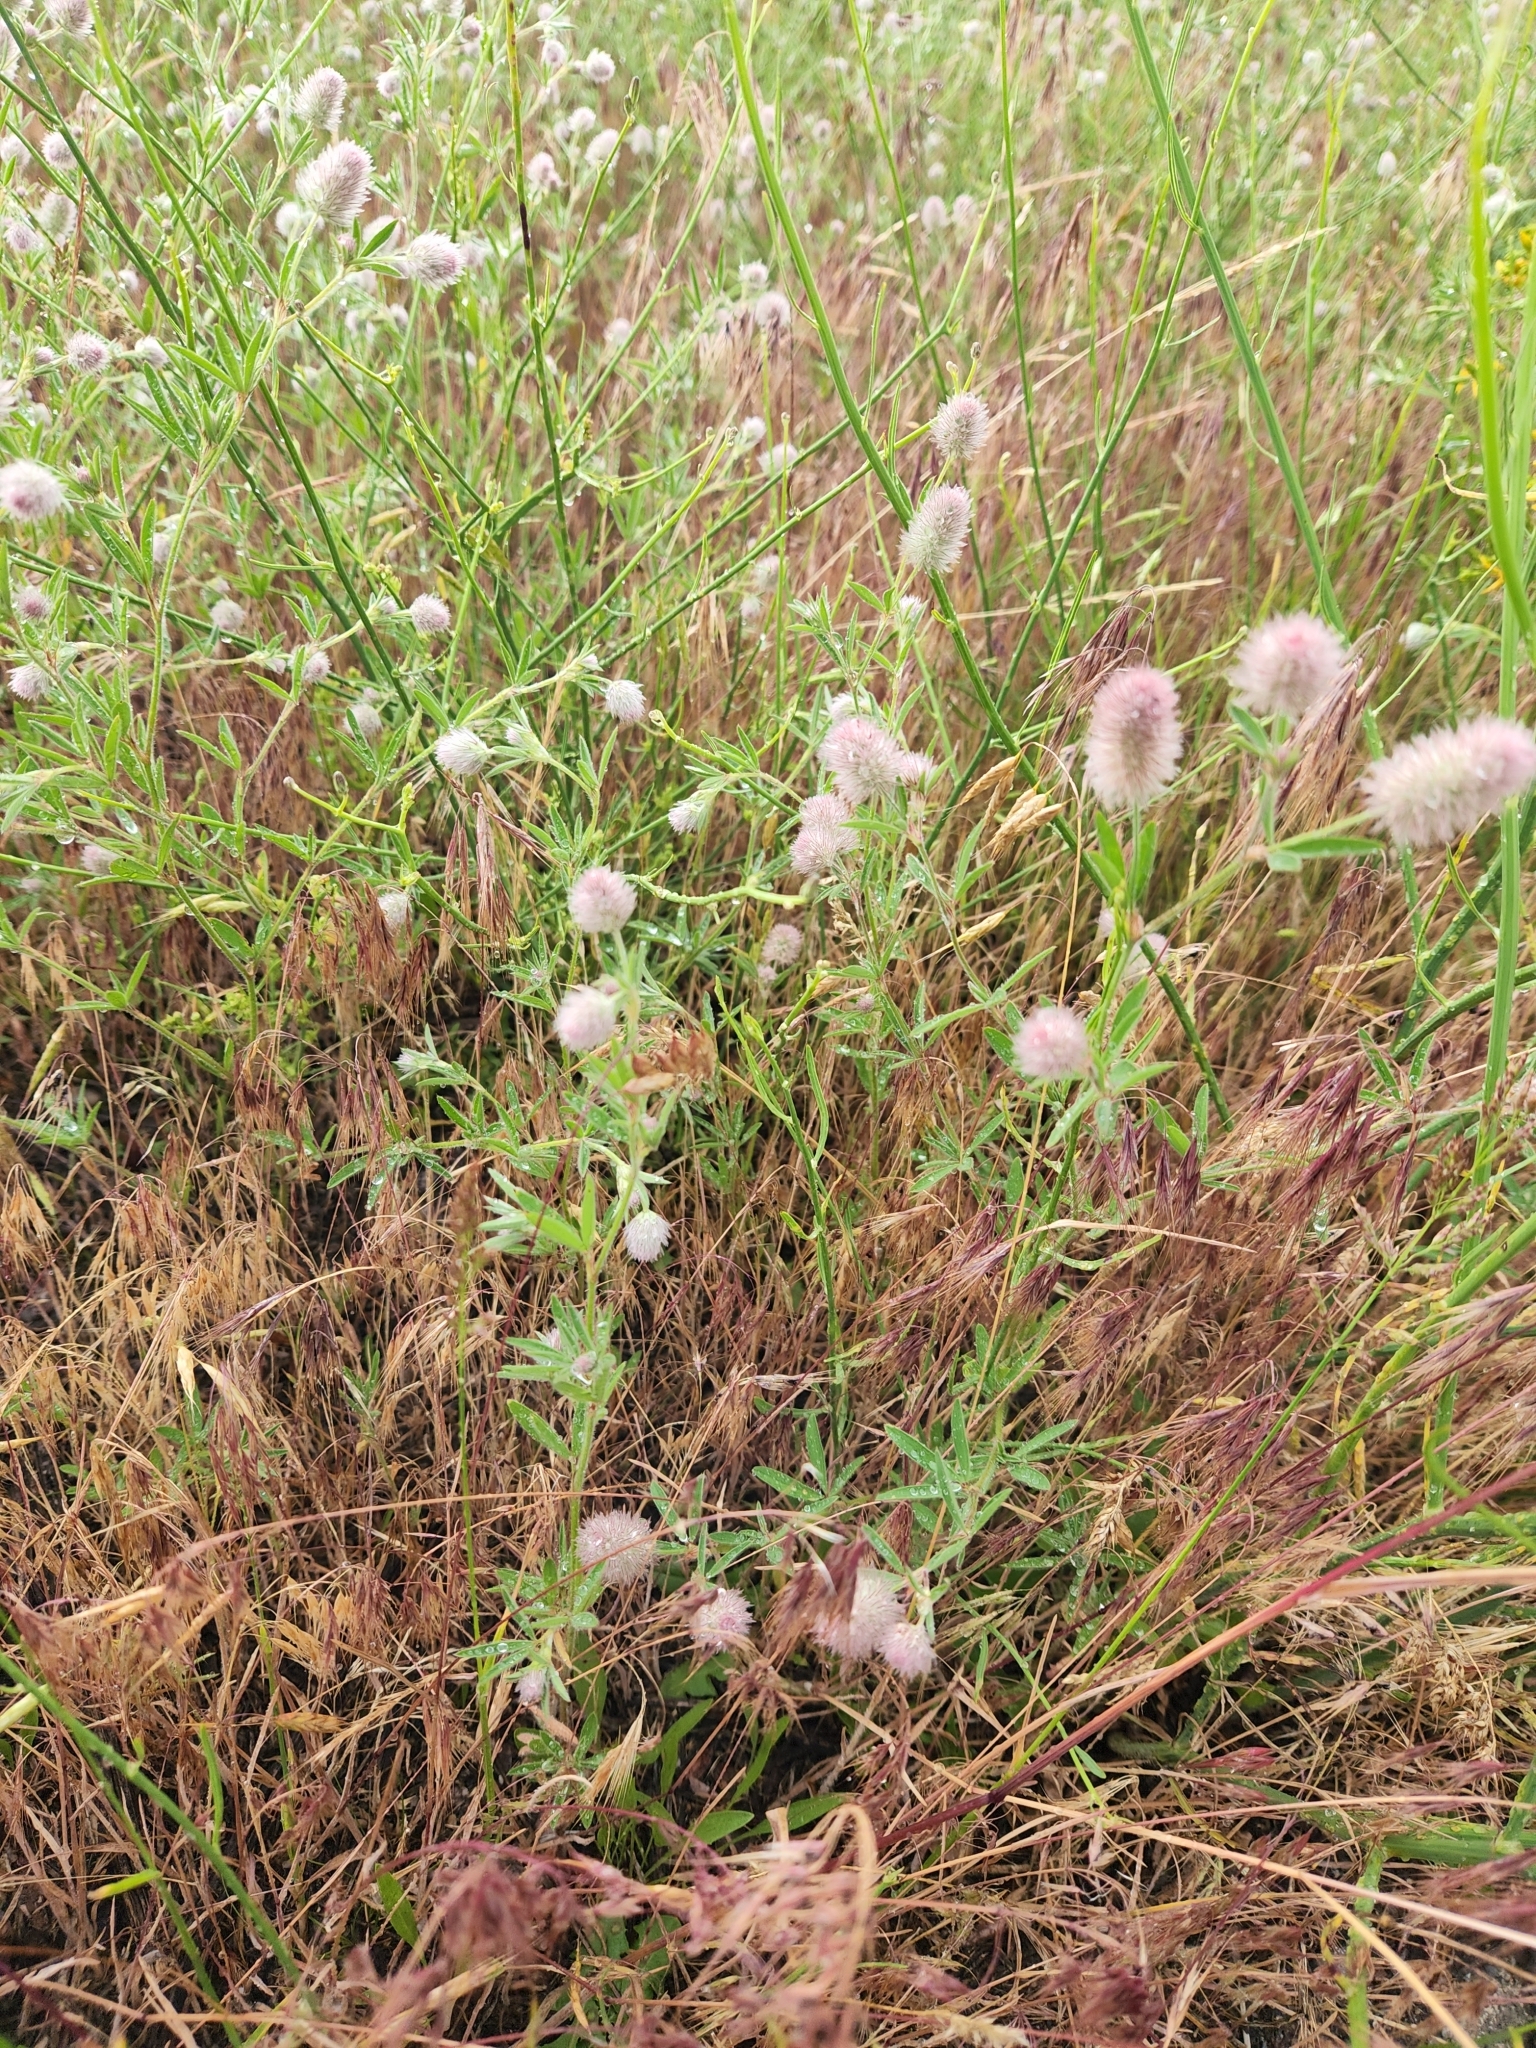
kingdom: Plantae
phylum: Tracheophyta
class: Magnoliopsida
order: Fabales
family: Fabaceae
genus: Trifolium
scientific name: Trifolium arvense
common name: Hare's-foot clover
